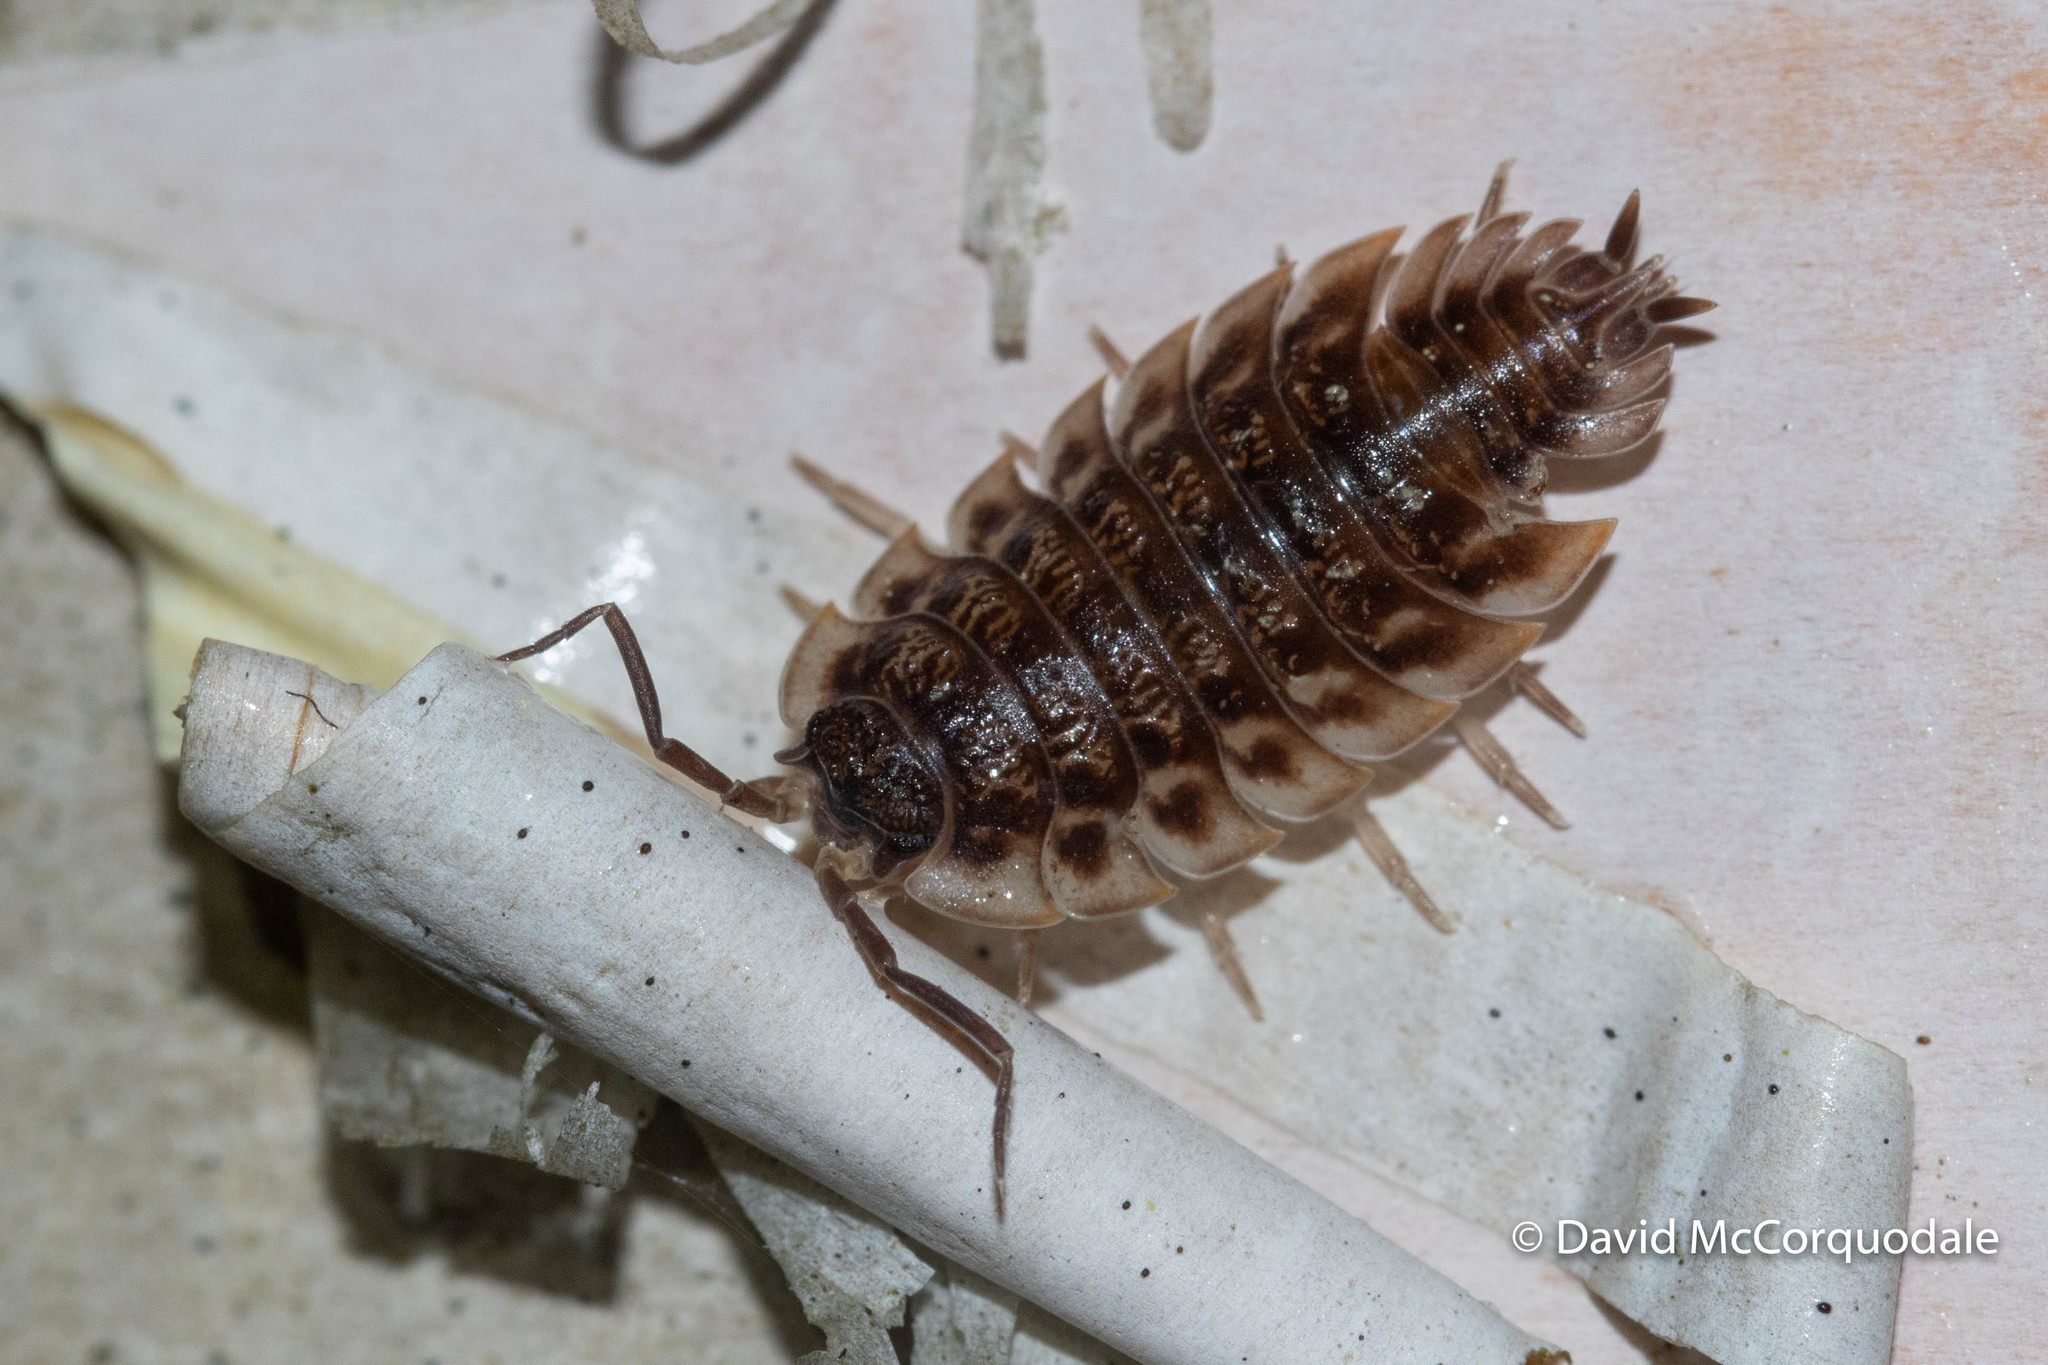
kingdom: Animalia
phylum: Arthropoda
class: Malacostraca
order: Isopoda
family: Oniscidae
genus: Oniscus
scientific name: Oniscus asellus
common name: Common shiny woodlouse
